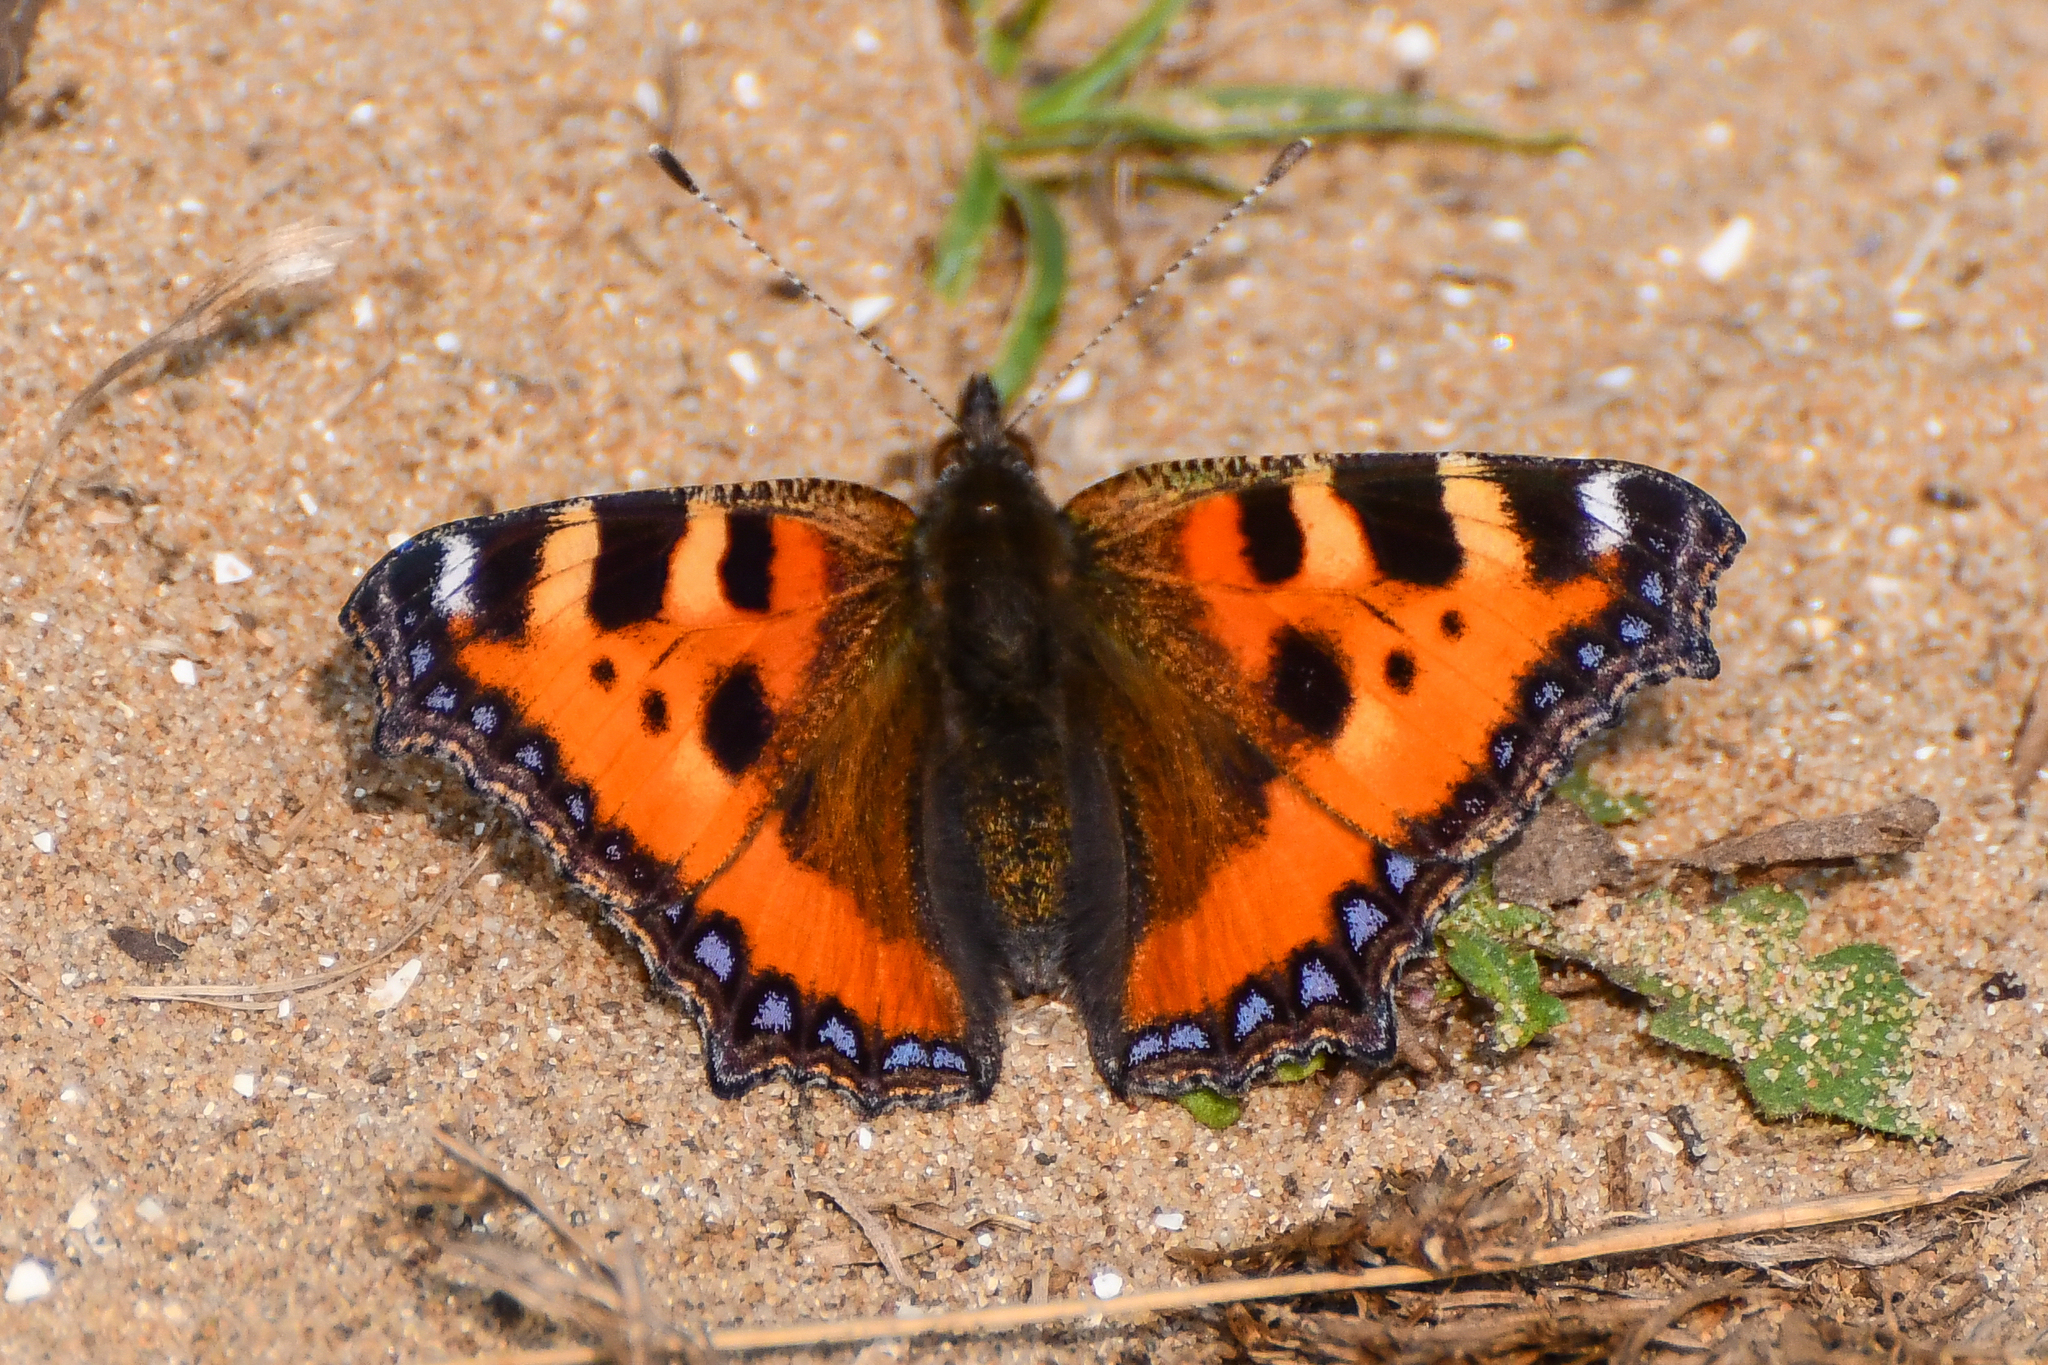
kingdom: Animalia
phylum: Arthropoda
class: Insecta
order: Lepidoptera
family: Nymphalidae
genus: Aglais
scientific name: Aglais urticae
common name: Small tortoiseshell
